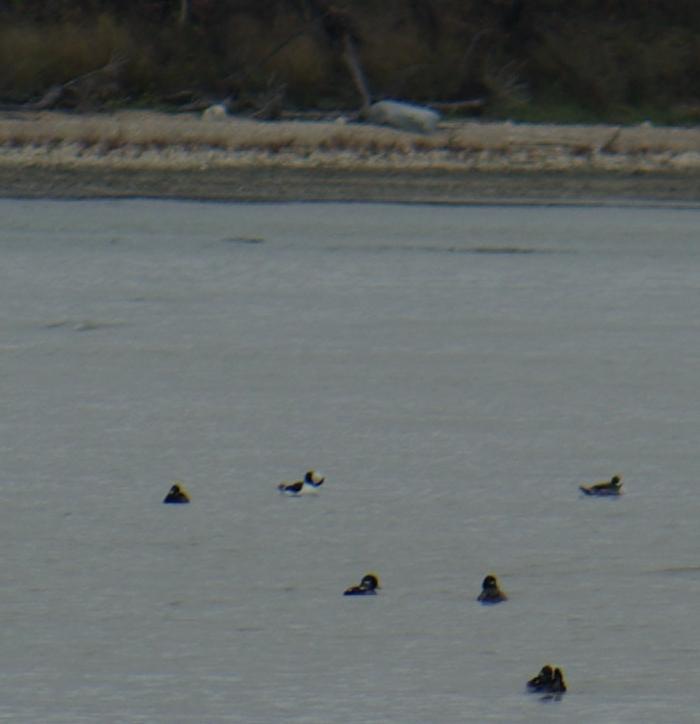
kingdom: Animalia
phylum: Chordata
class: Aves
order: Anseriformes
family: Anatidae
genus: Bucephala
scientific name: Bucephala albeola
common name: Bufflehead
